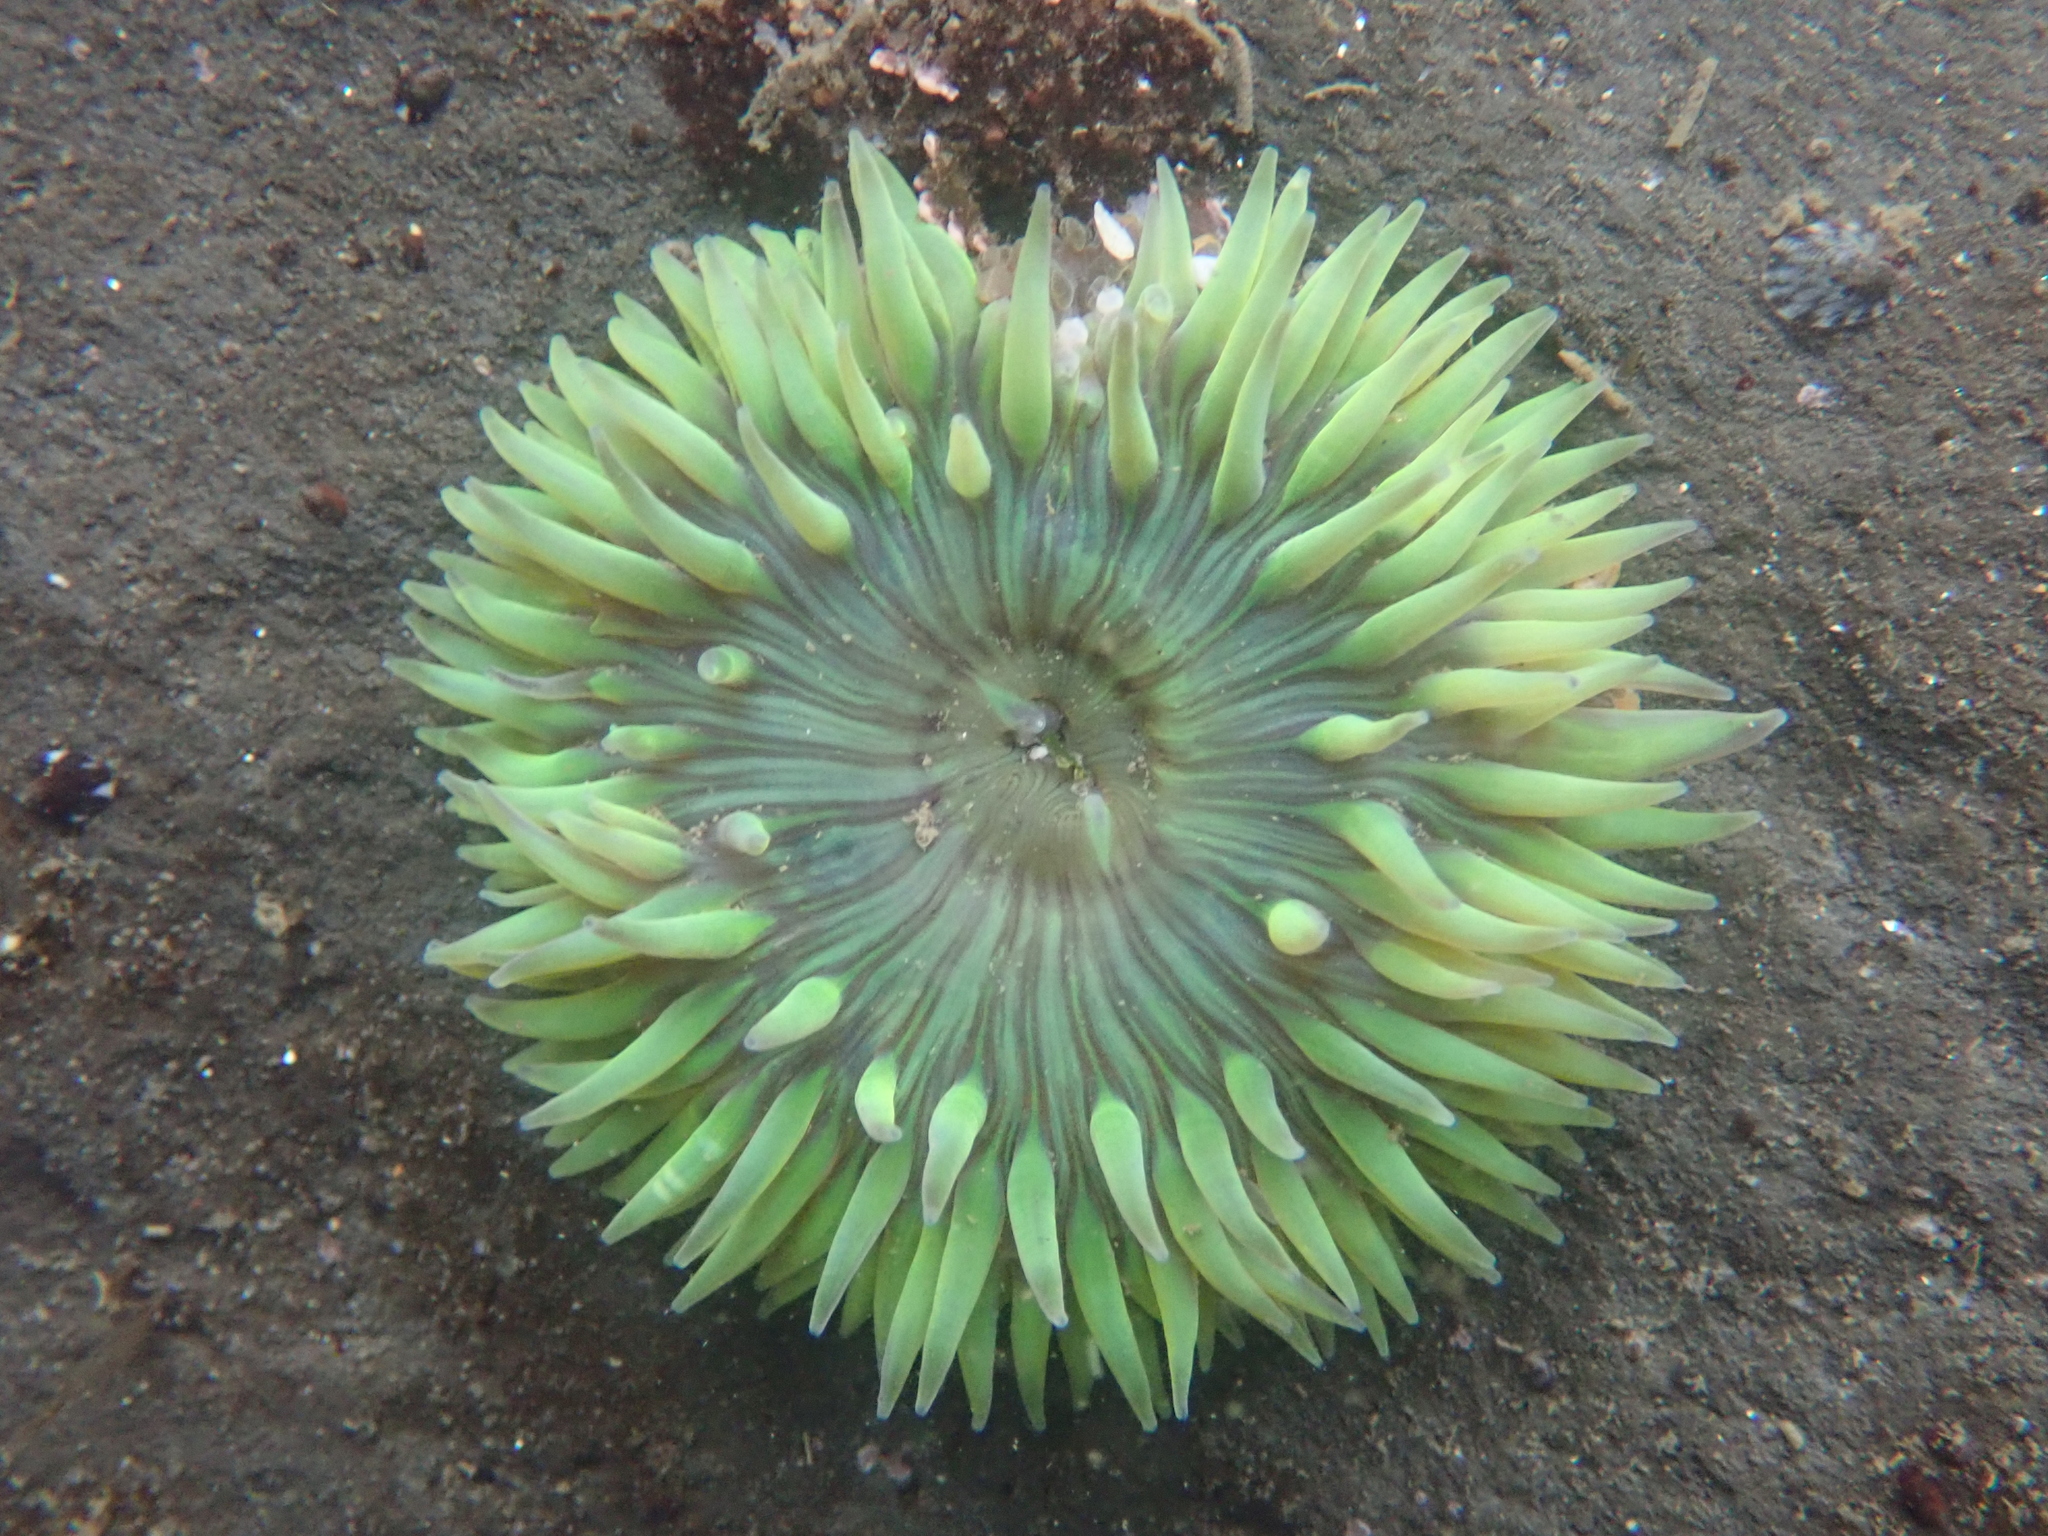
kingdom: Animalia
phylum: Cnidaria
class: Anthozoa
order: Actiniaria
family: Actiniidae
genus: Anthopleura
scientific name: Anthopleura sola
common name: Sun anemone
